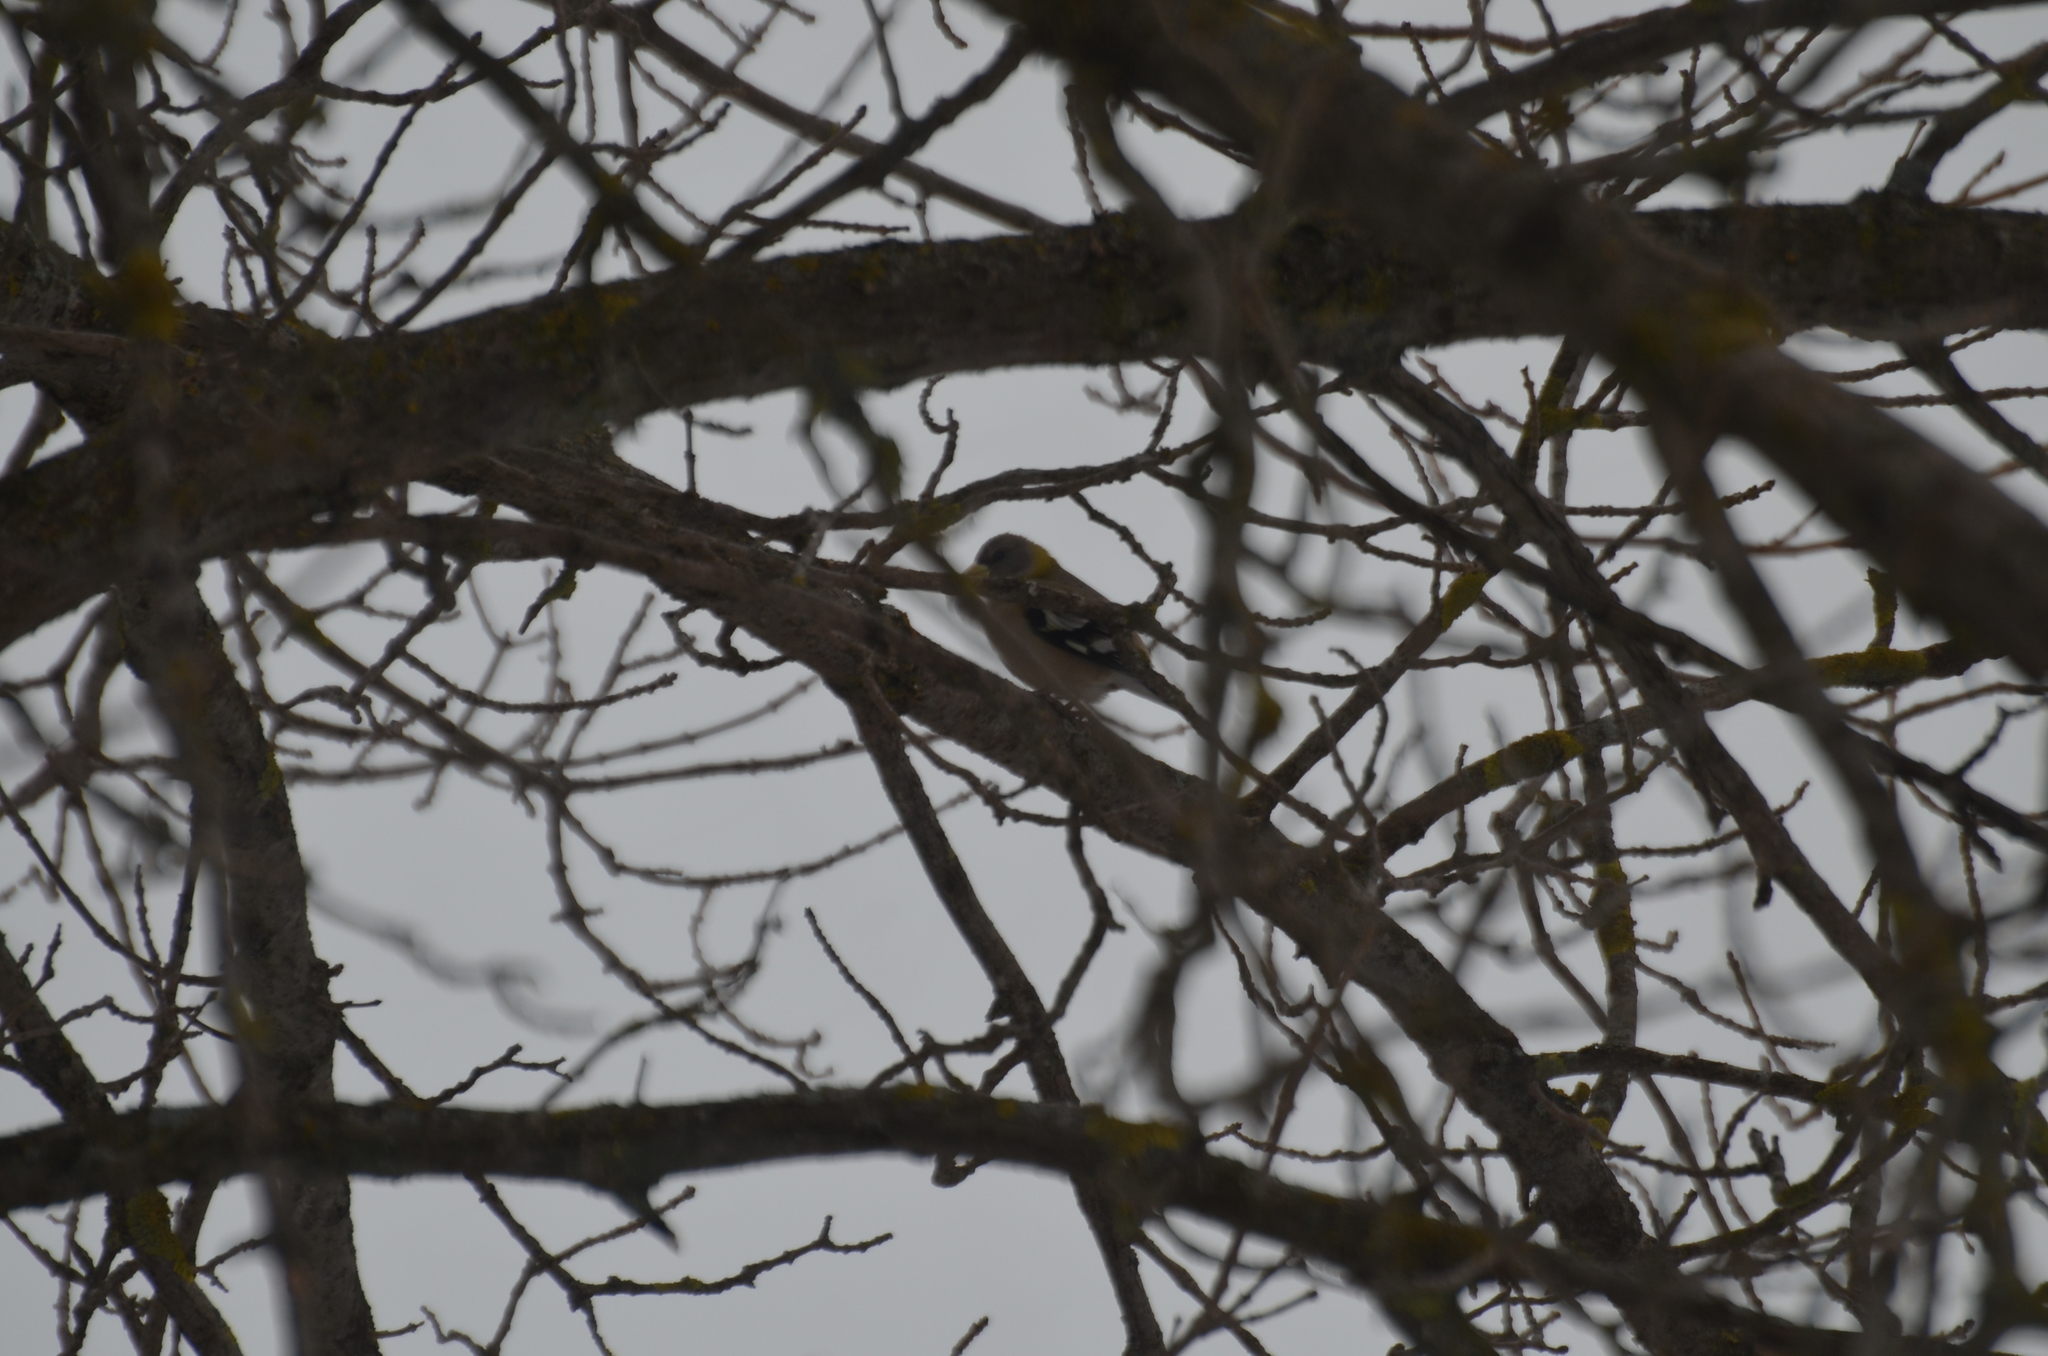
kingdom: Animalia
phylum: Chordata
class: Aves
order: Passeriformes
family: Fringillidae
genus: Hesperiphona
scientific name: Hesperiphona vespertina
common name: Evening grosbeak
